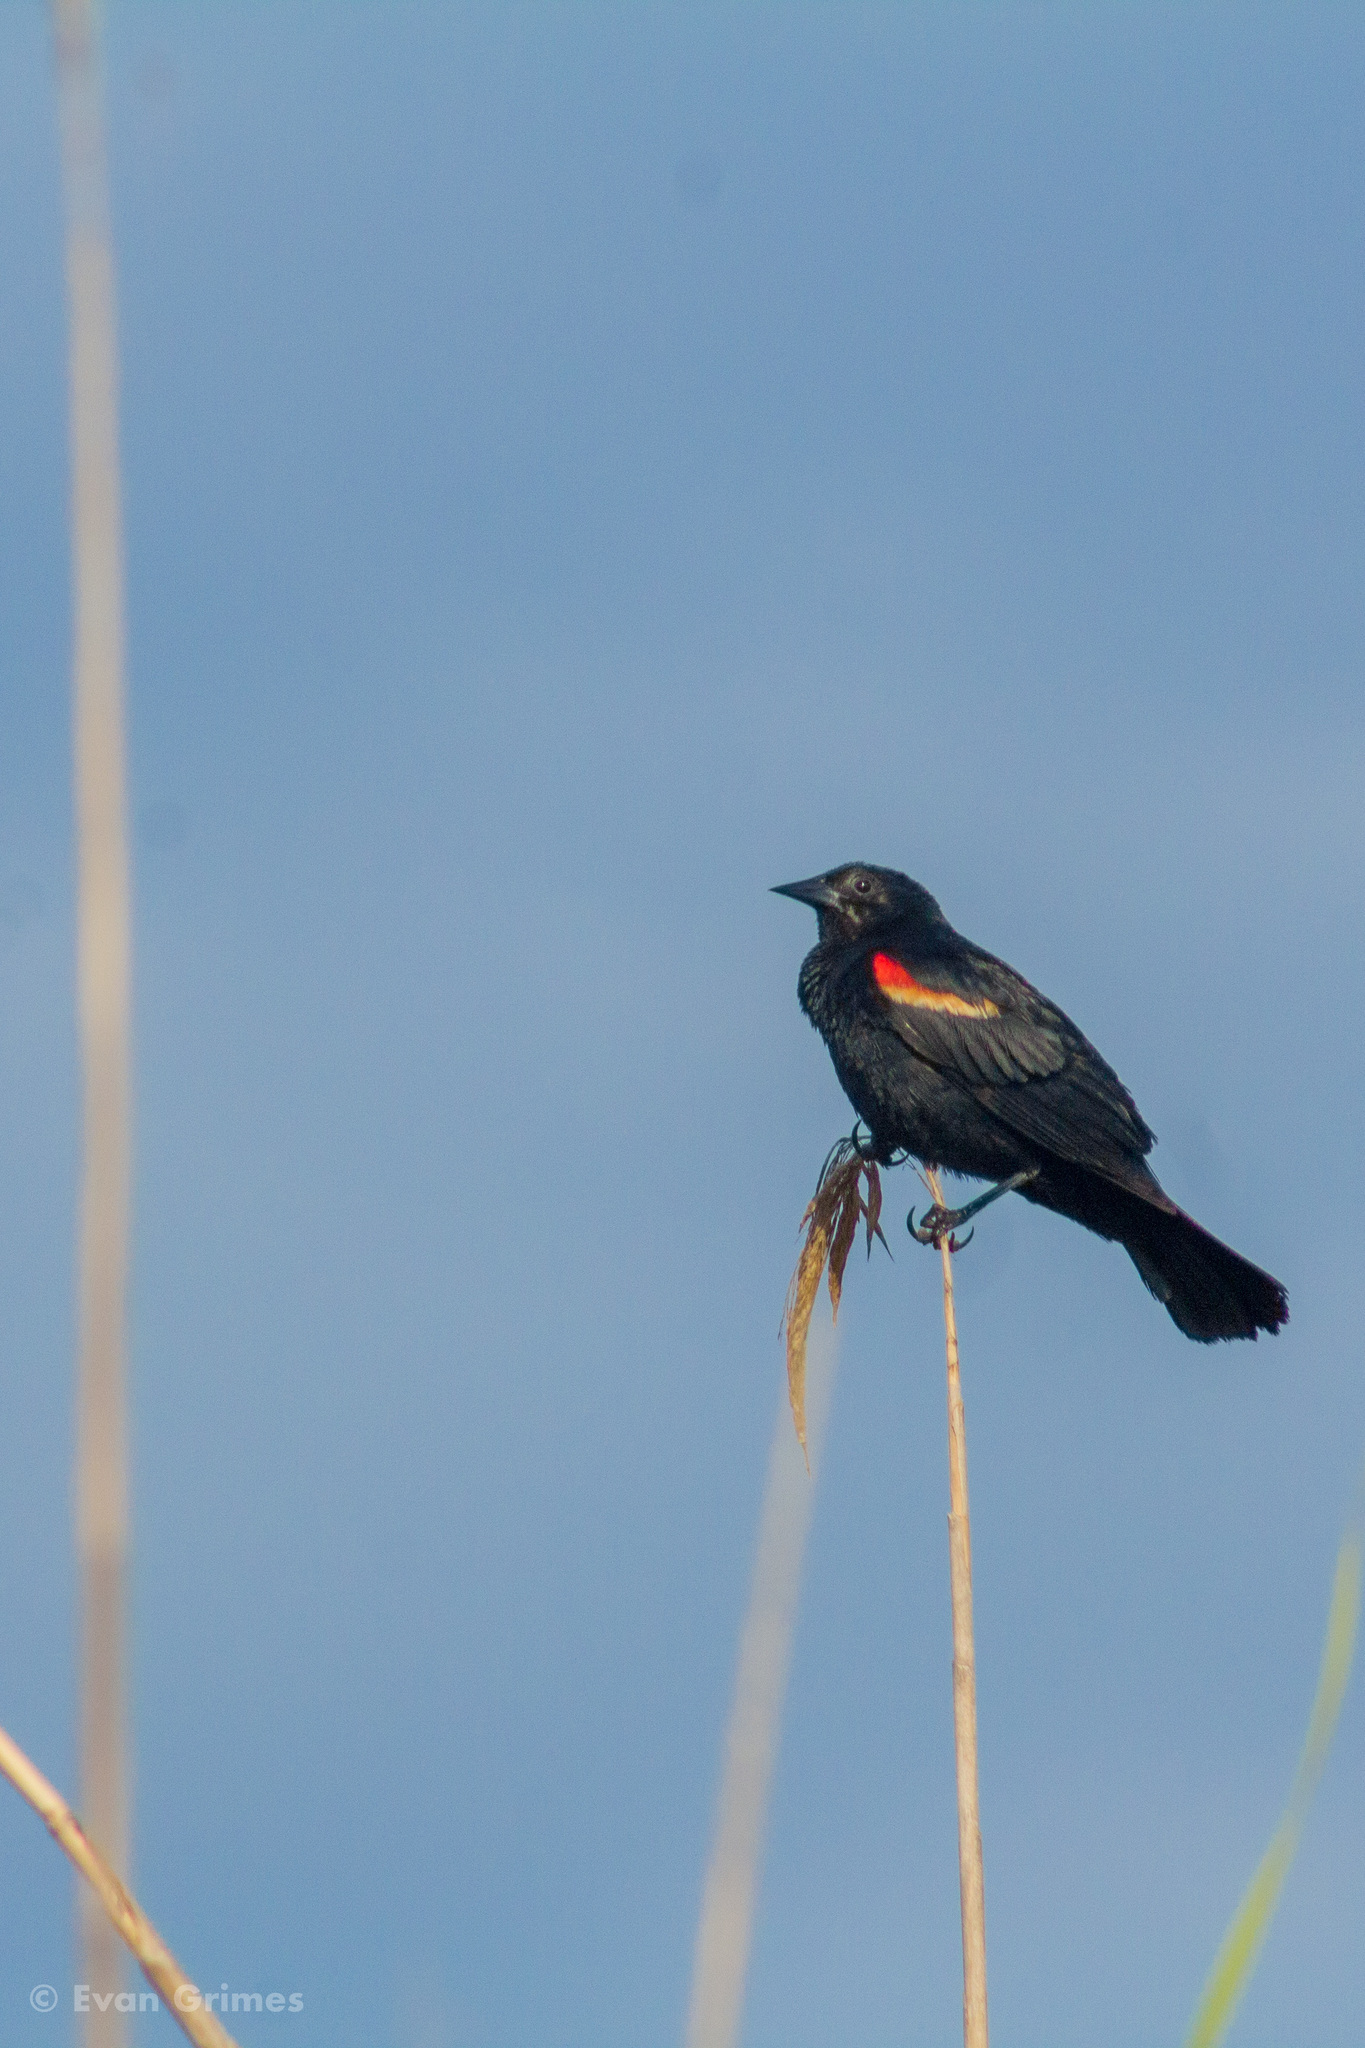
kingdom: Animalia
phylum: Chordata
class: Aves
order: Passeriformes
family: Icteridae
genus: Agelaius
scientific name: Agelaius phoeniceus
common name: Red-winged blackbird
